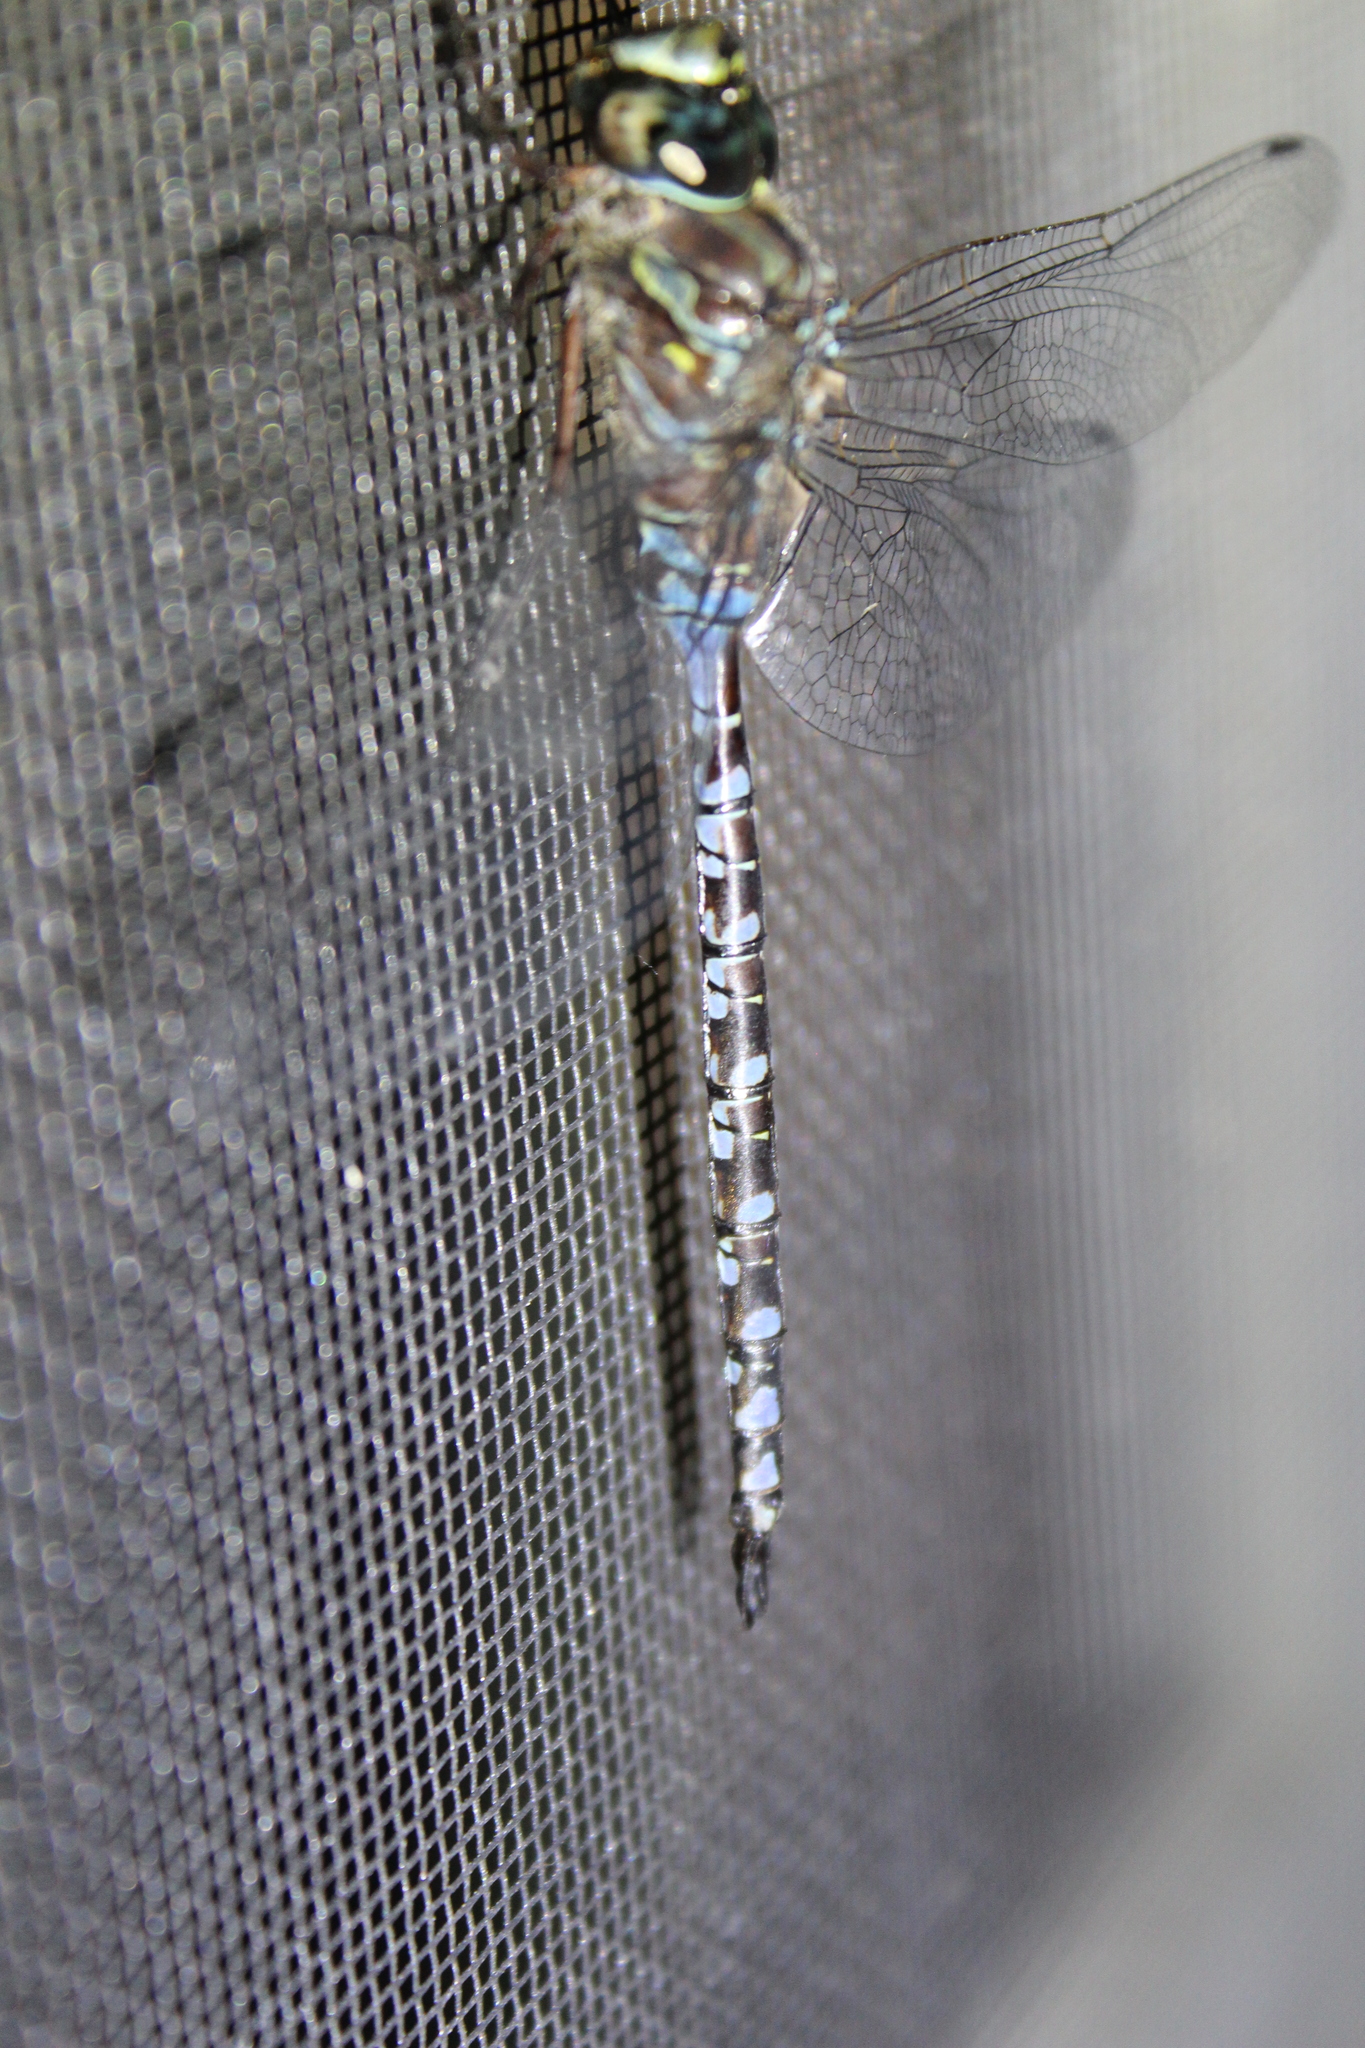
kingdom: Animalia
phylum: Arthropoda
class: Insecta
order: Odonata
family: Aeshnidae
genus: Aeshna
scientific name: Aeshna canadensis
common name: Canada darner
